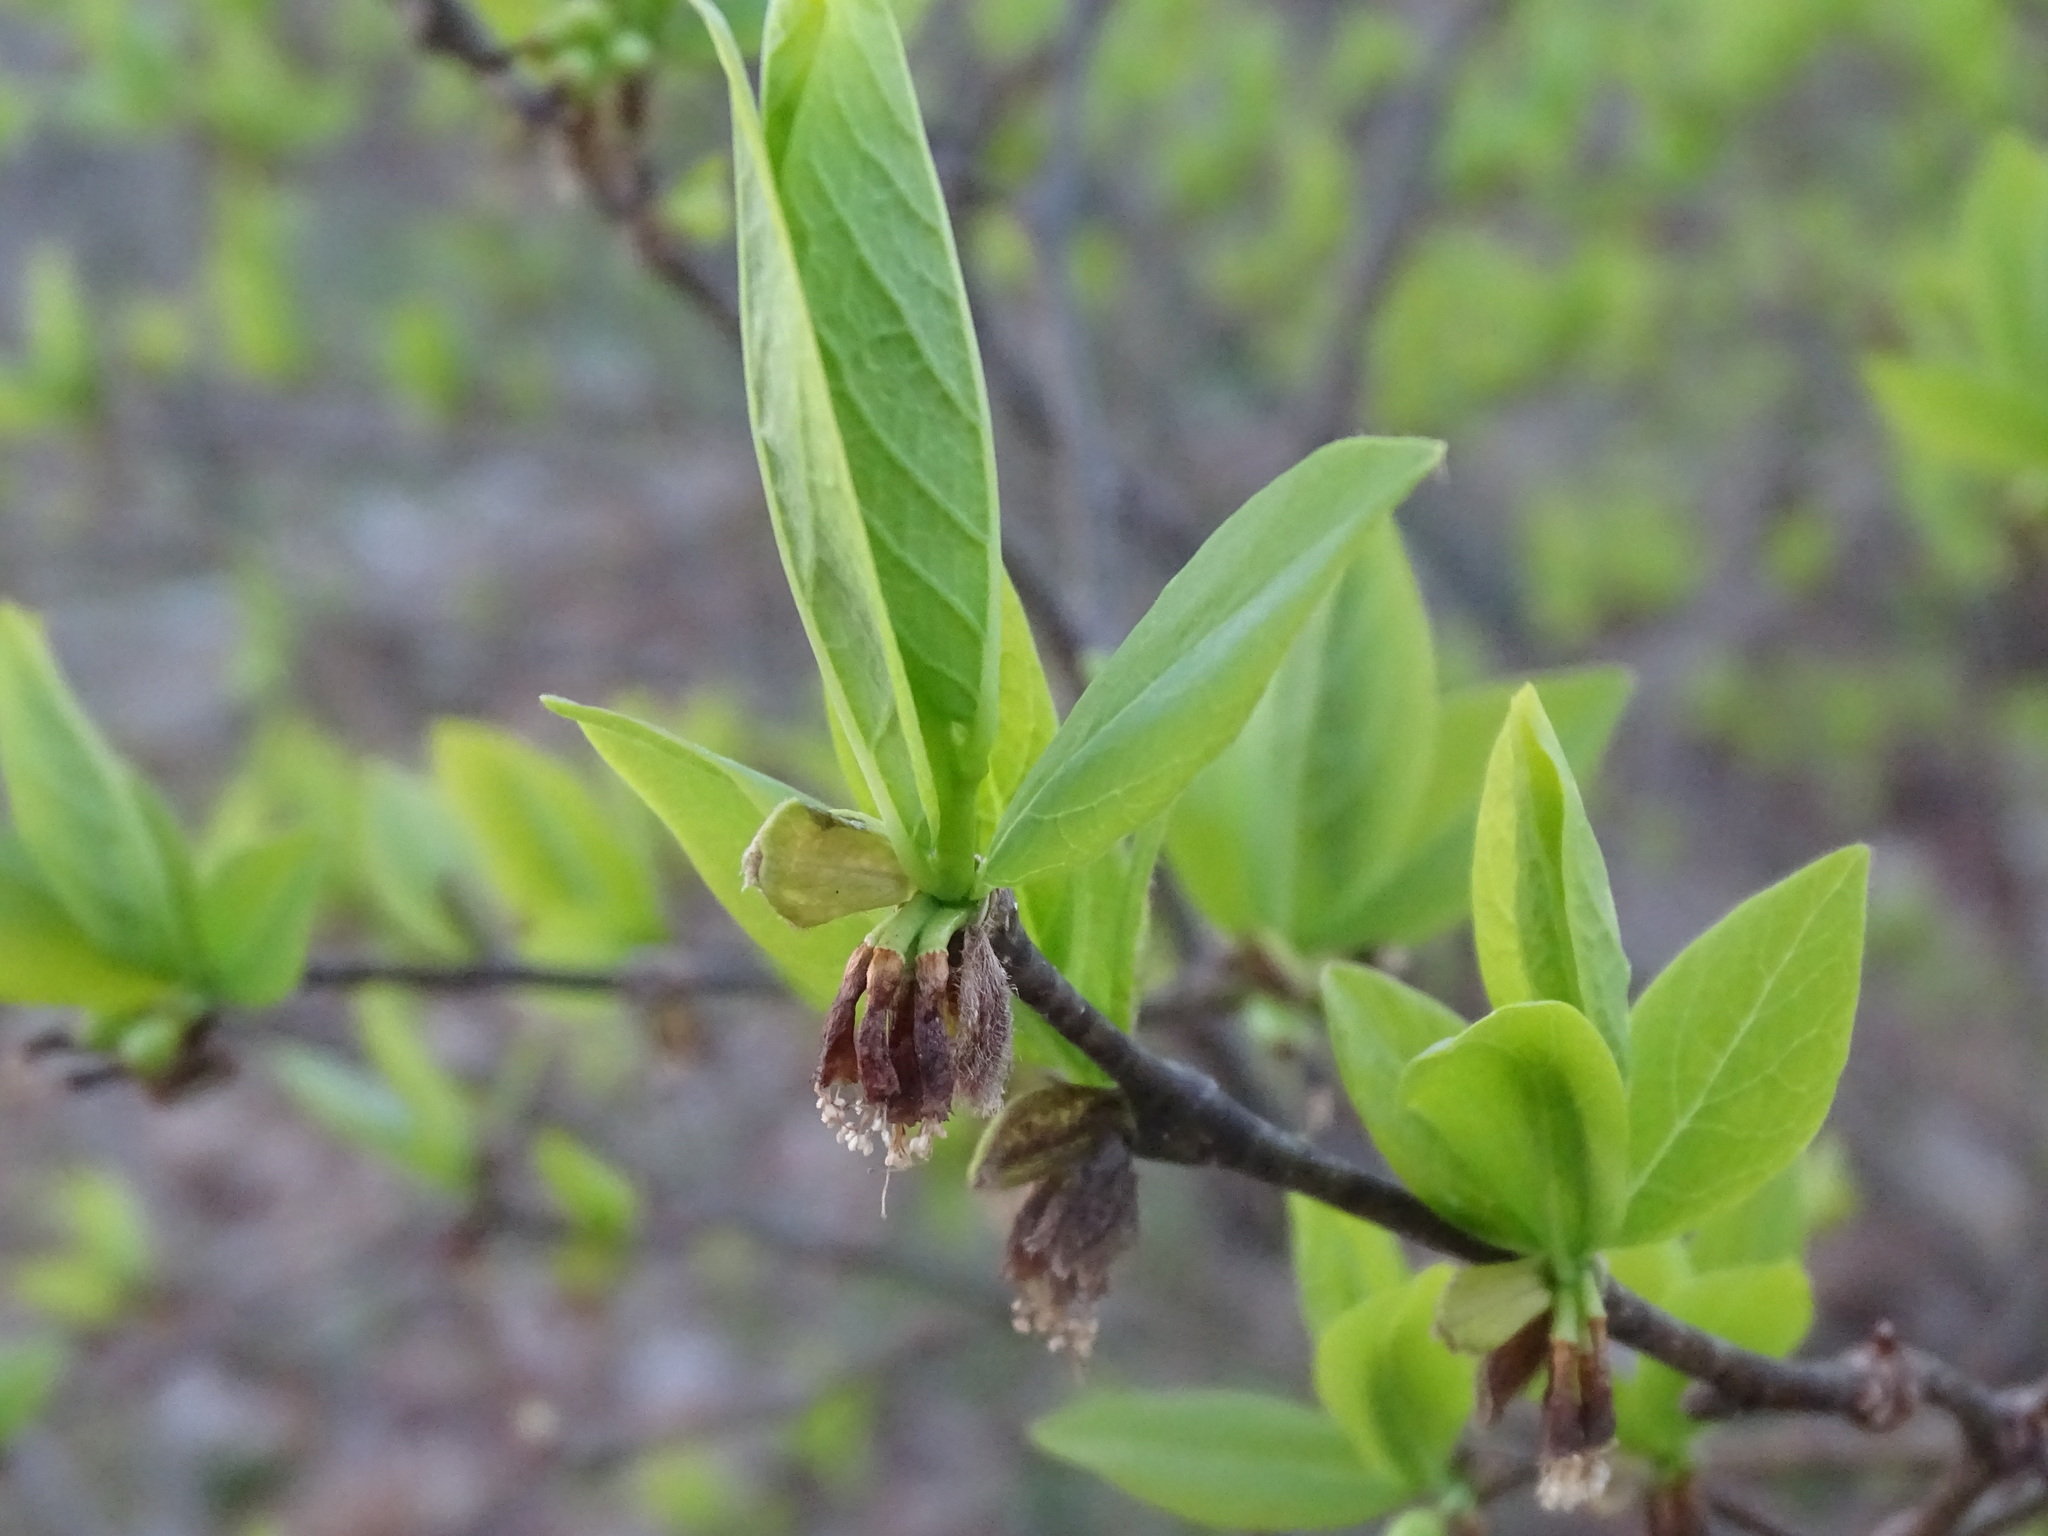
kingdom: Plantae
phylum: Tracheophyta
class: Magnoliopsida
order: Malvales
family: Thymelaeaceae
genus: Dirca
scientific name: Dirca palustris
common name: Leatherwood
